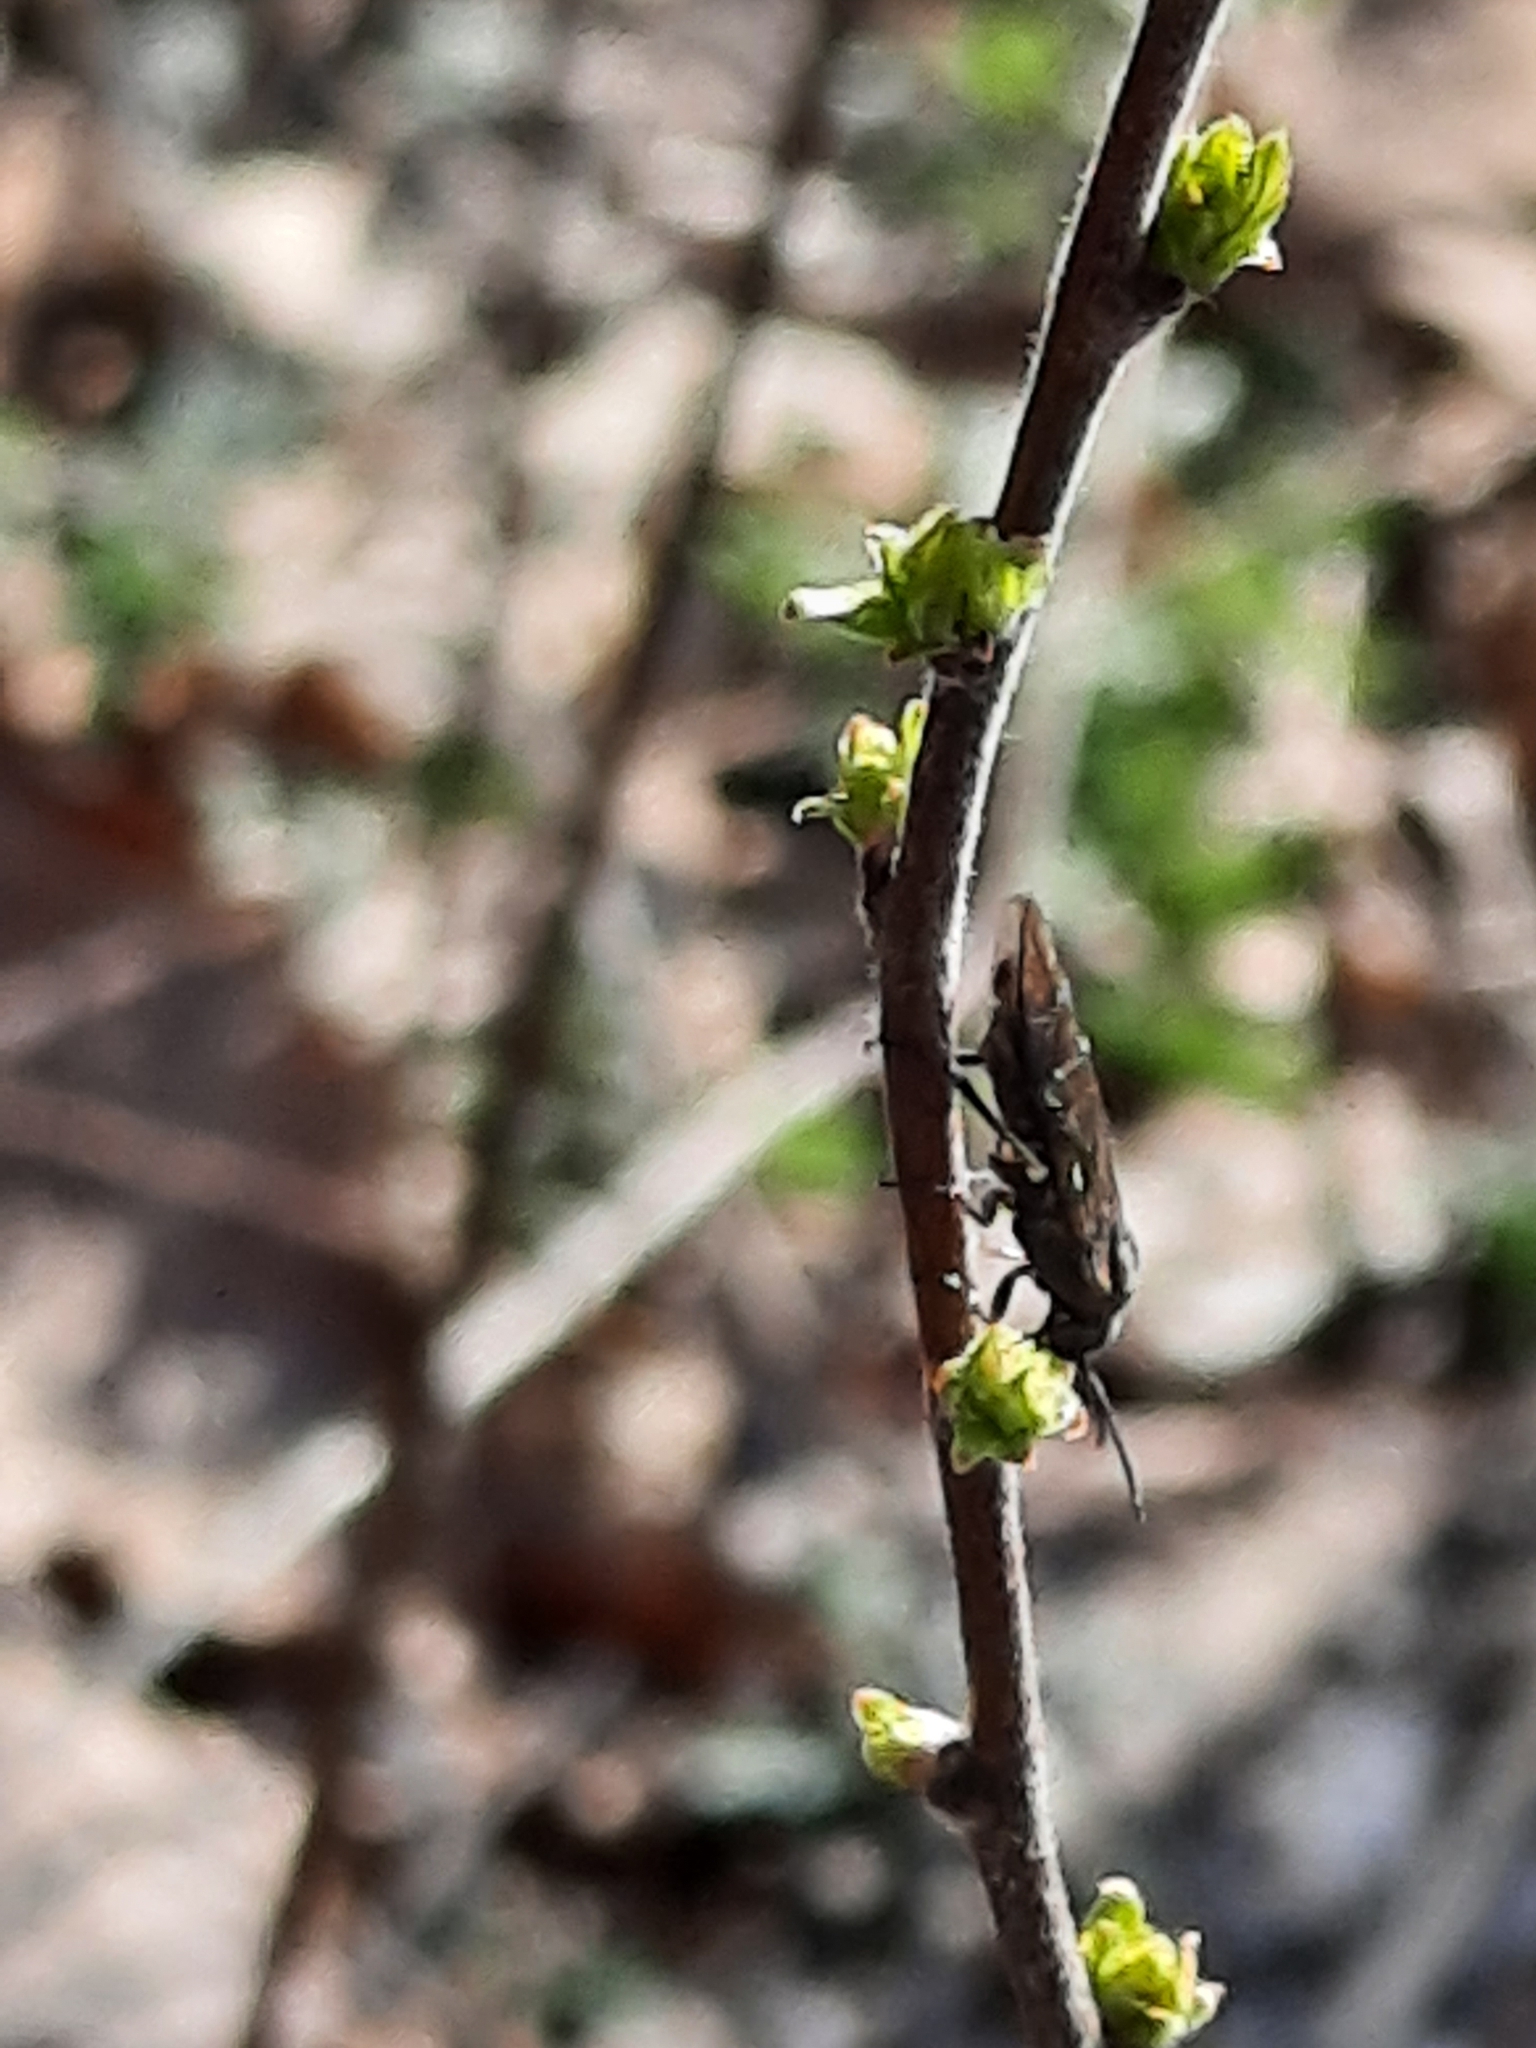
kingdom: Plantae
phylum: Tracheophyta
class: Magnoliopsida
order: Fagales
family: Myricaceae
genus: Comptonia
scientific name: Comptonia peregrina
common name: Sweet-fern
